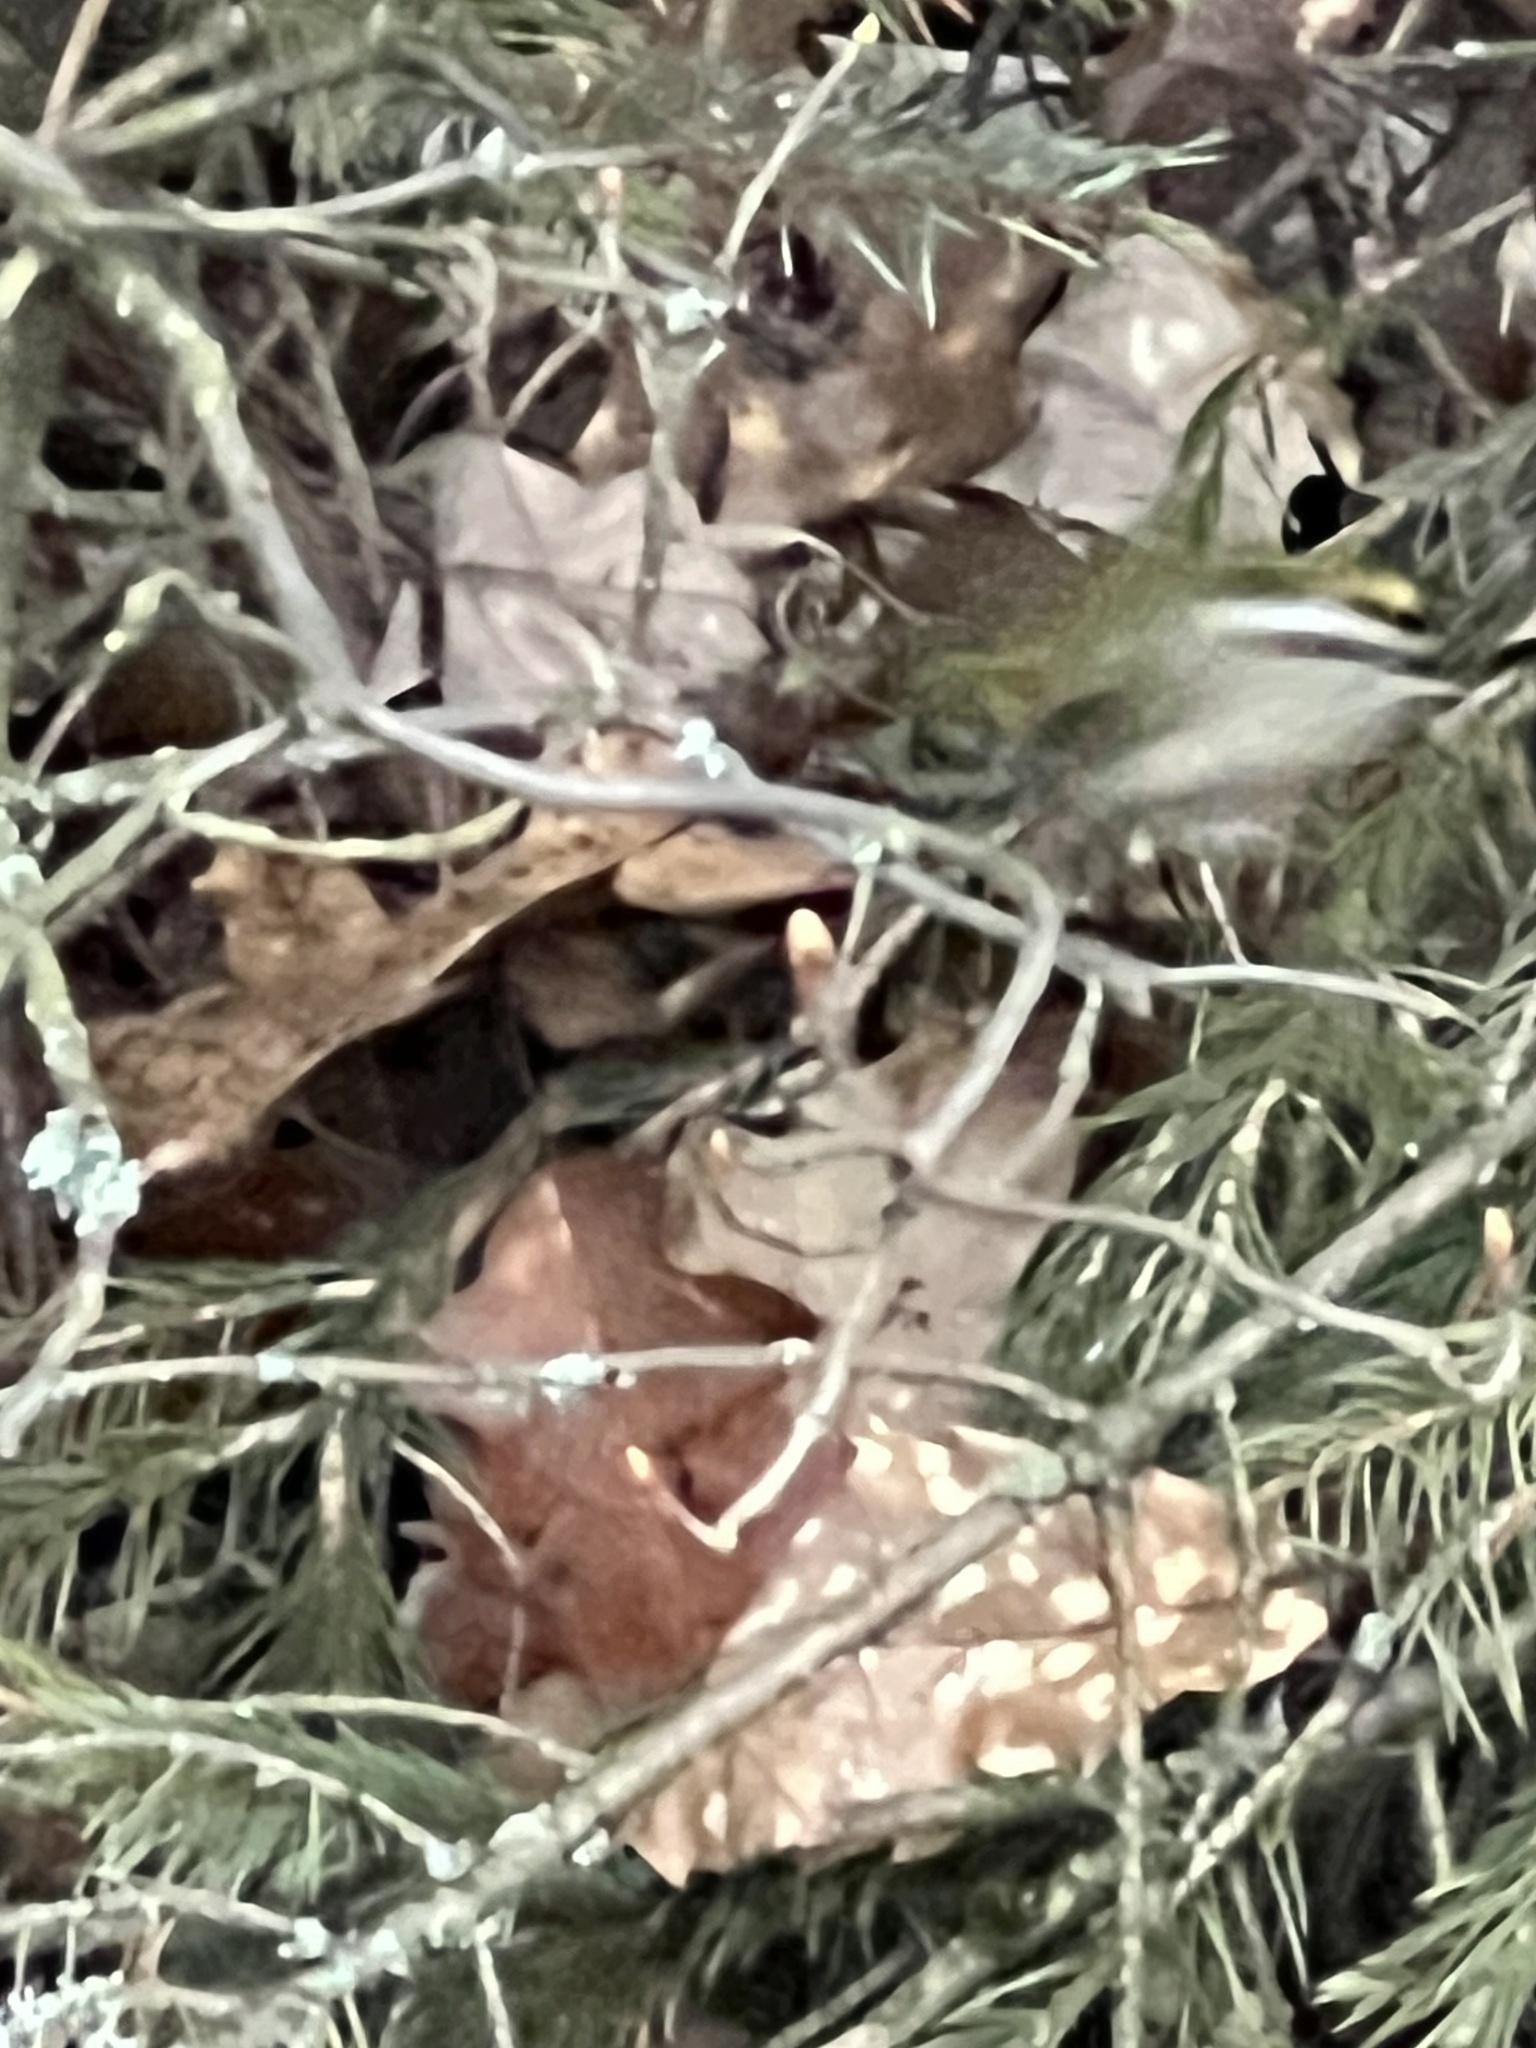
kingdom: Animalia
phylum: Chordata
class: Aves
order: Passeriformes
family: Regulidae
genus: Regulus
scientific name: Regulus satrapa
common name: Golden-crowned kinglet
